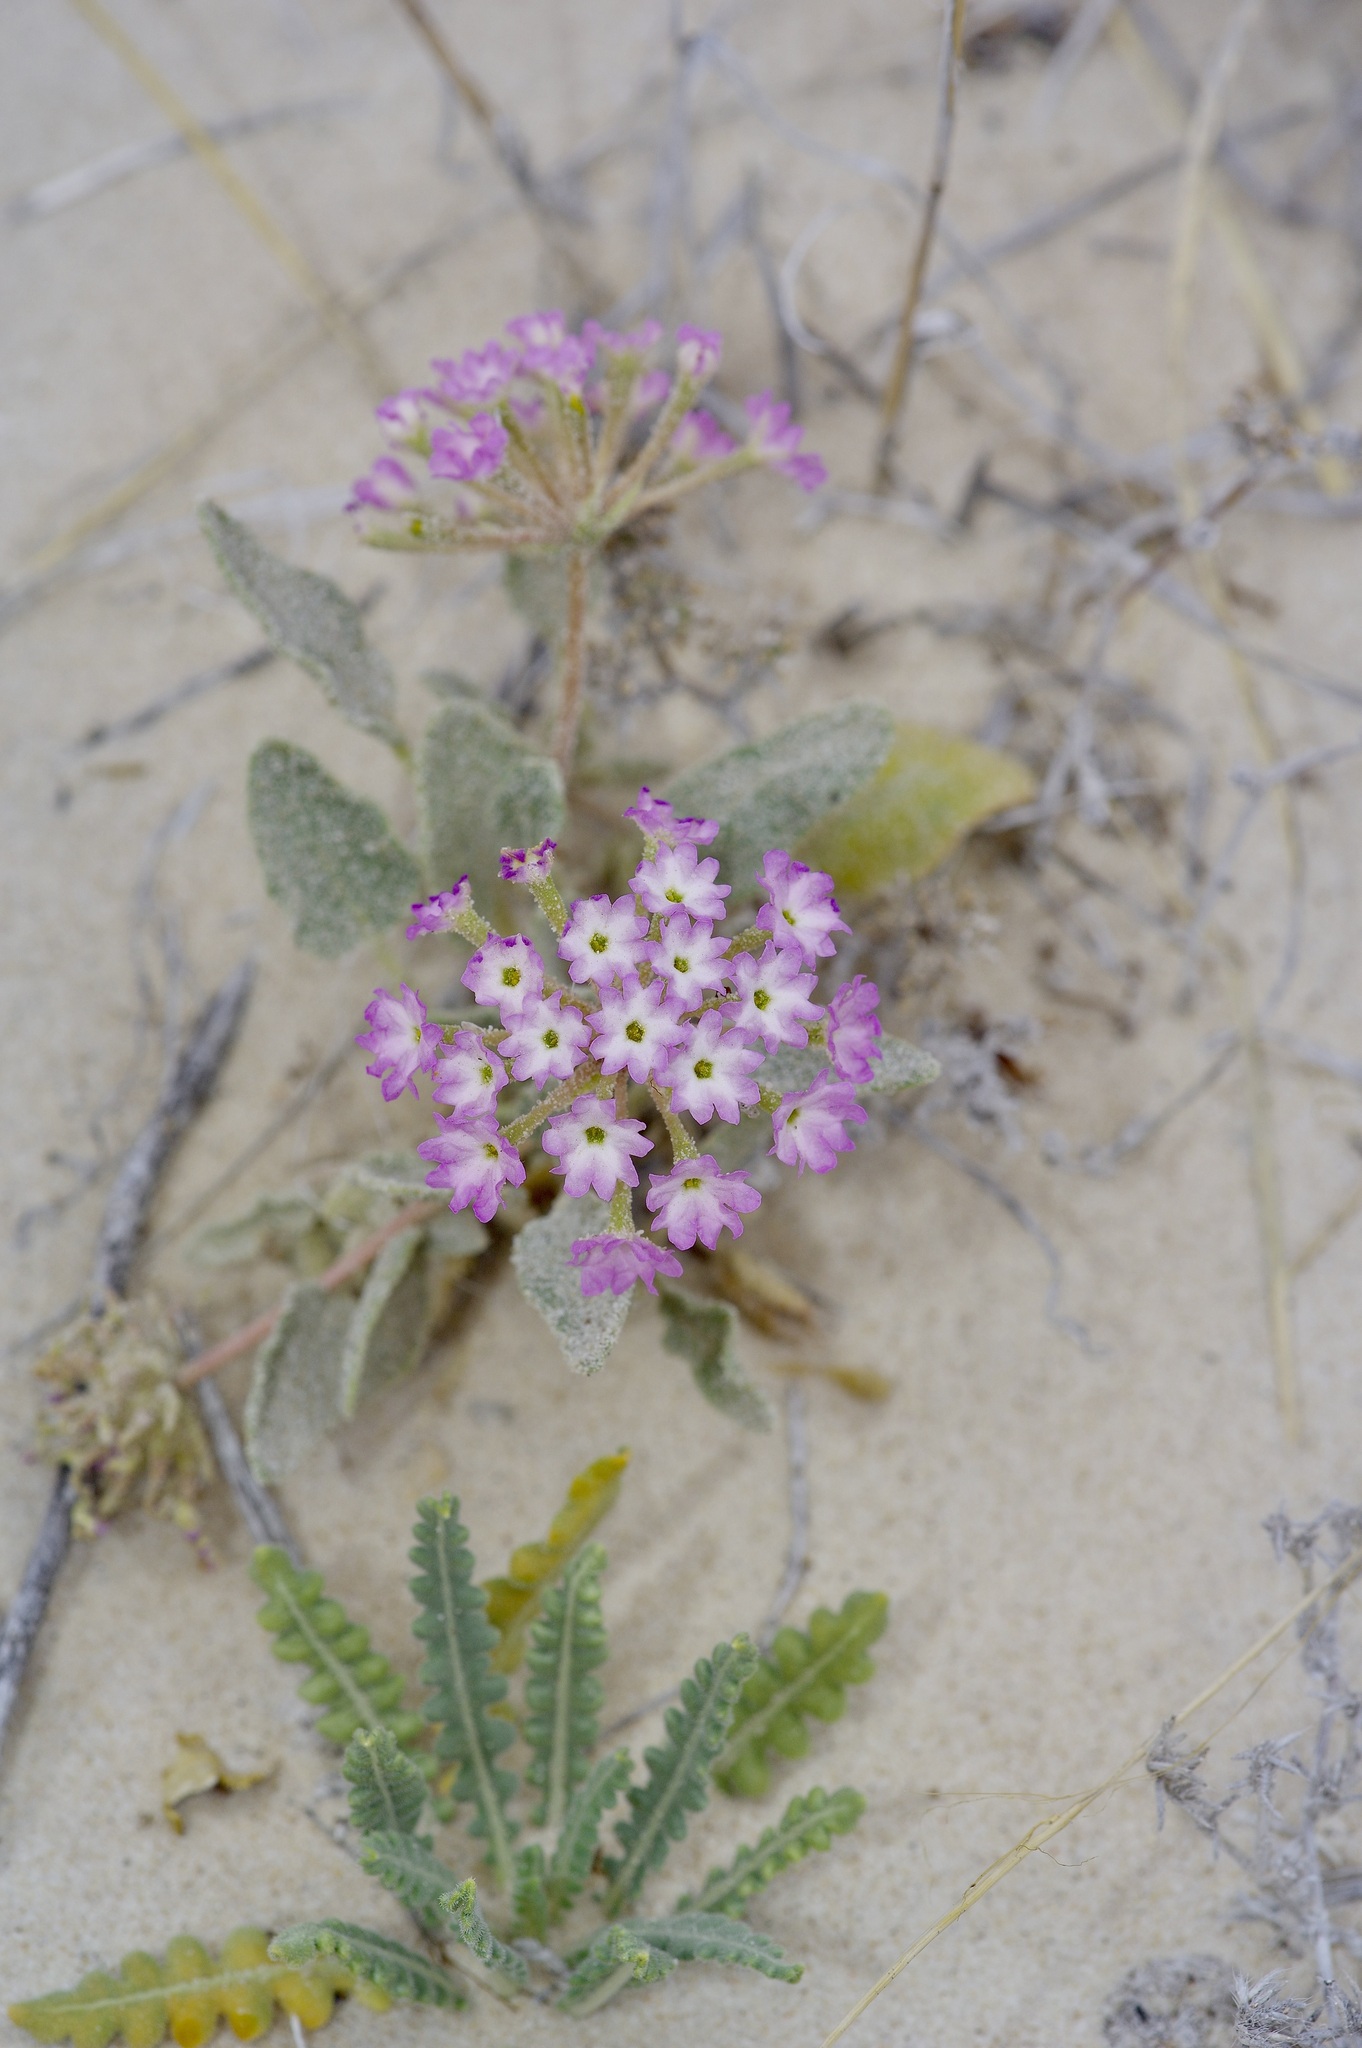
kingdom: Plantae
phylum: Tracheophyta
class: Magnoliopsida
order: Caryophyllales
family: Nyctaginaceae
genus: Abronia
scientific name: Abronia angustifolia
